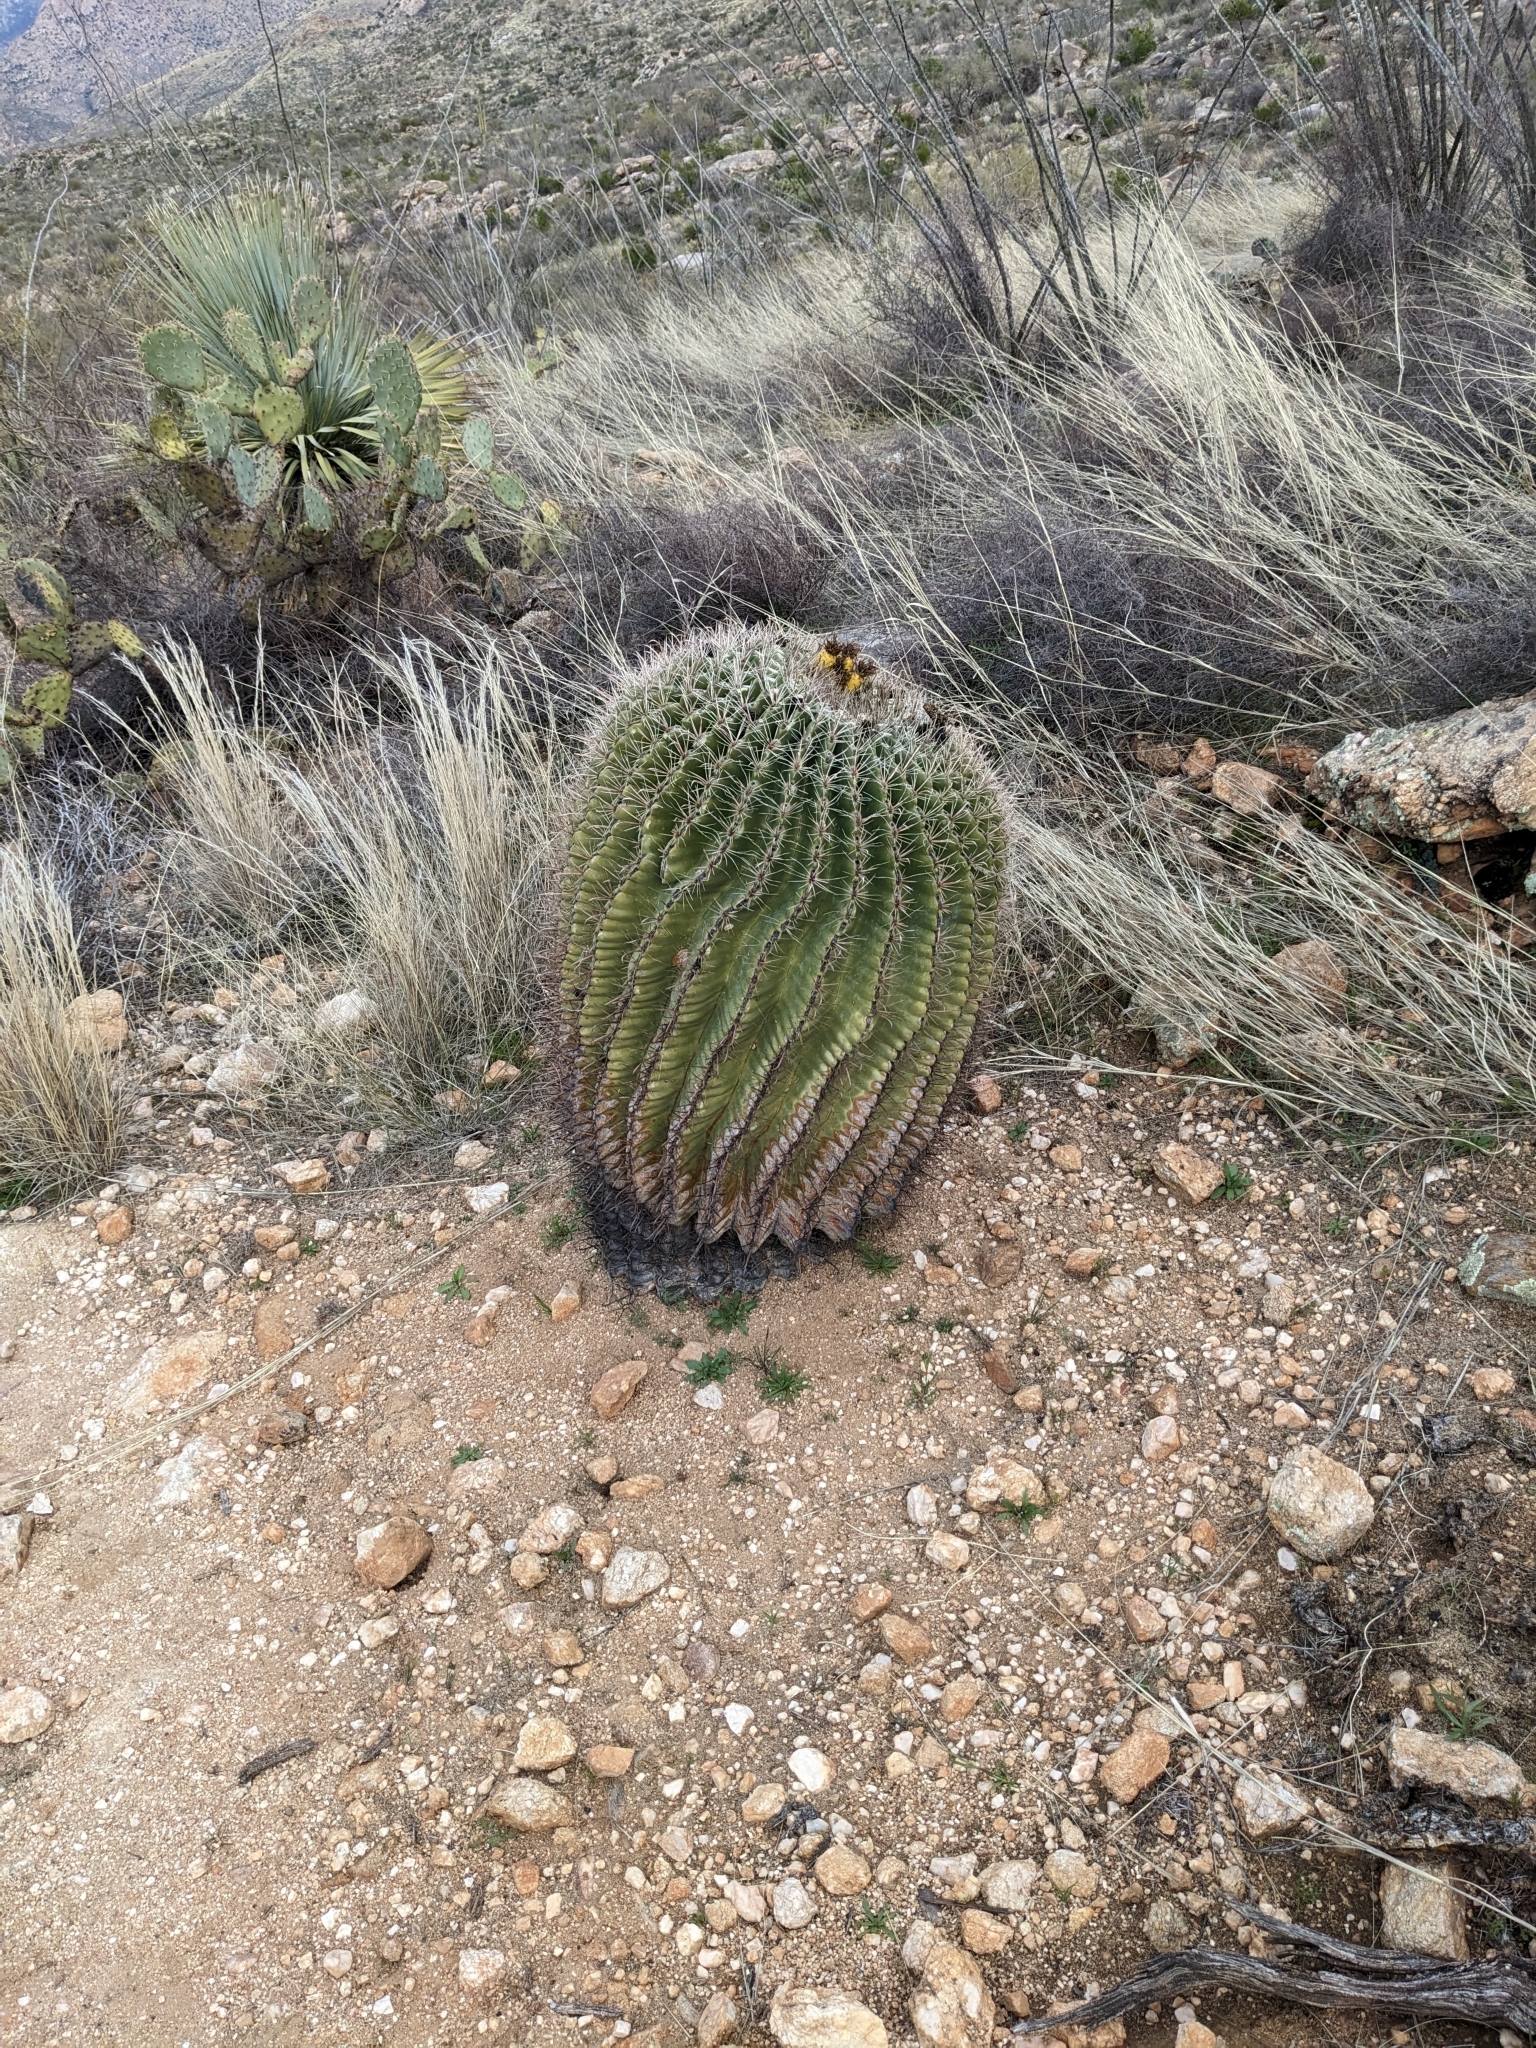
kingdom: Plantae
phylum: Tracheophyta
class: Magnoliopsida
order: Caryophyllales
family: Cactaceae
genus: Ferocactus
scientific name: Ferocactus wislizeni
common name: Candy barrel cactus
